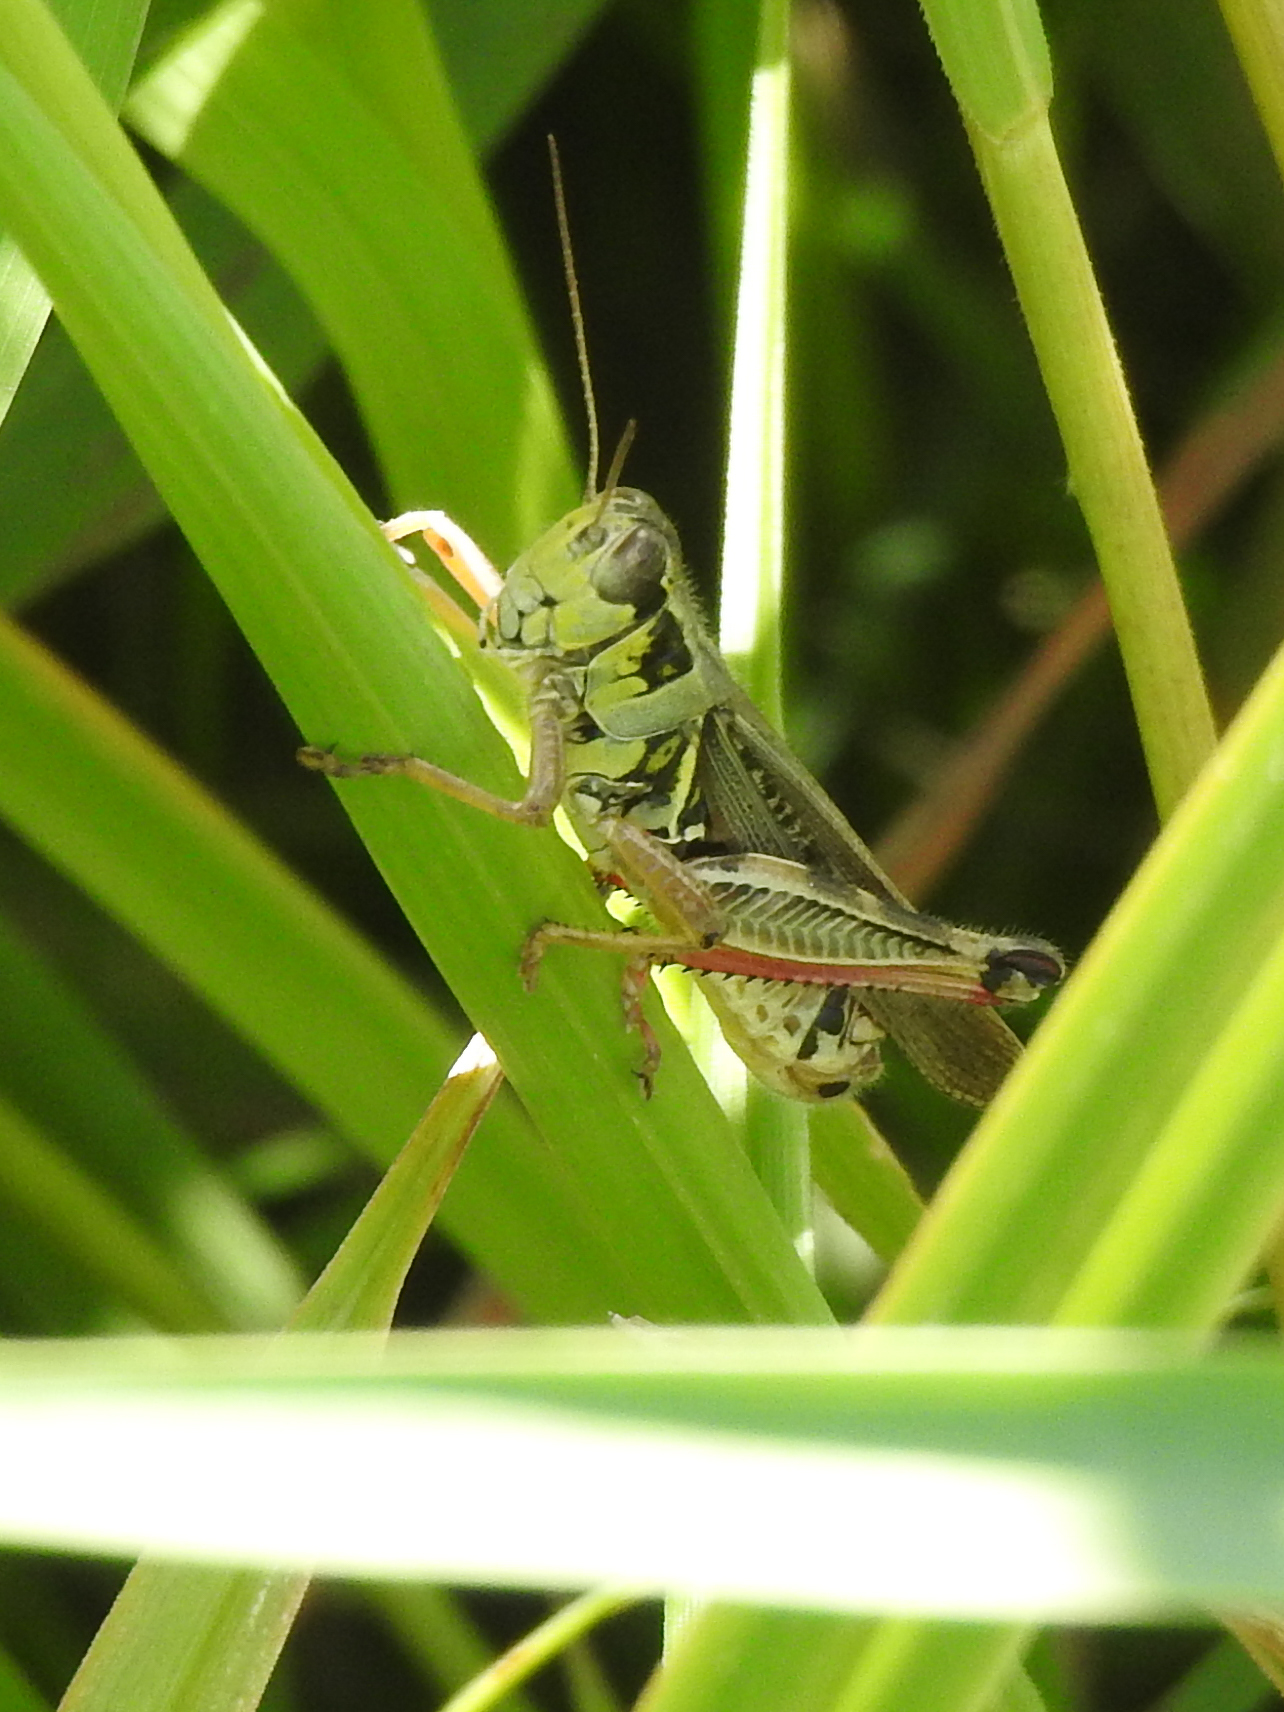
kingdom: Animalia
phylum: Arthropoda
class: Insecta
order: Orthoptera
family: Acrididae
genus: Melanoplus
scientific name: Melanoplus femurrubrum
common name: Red-legged grasshopper
